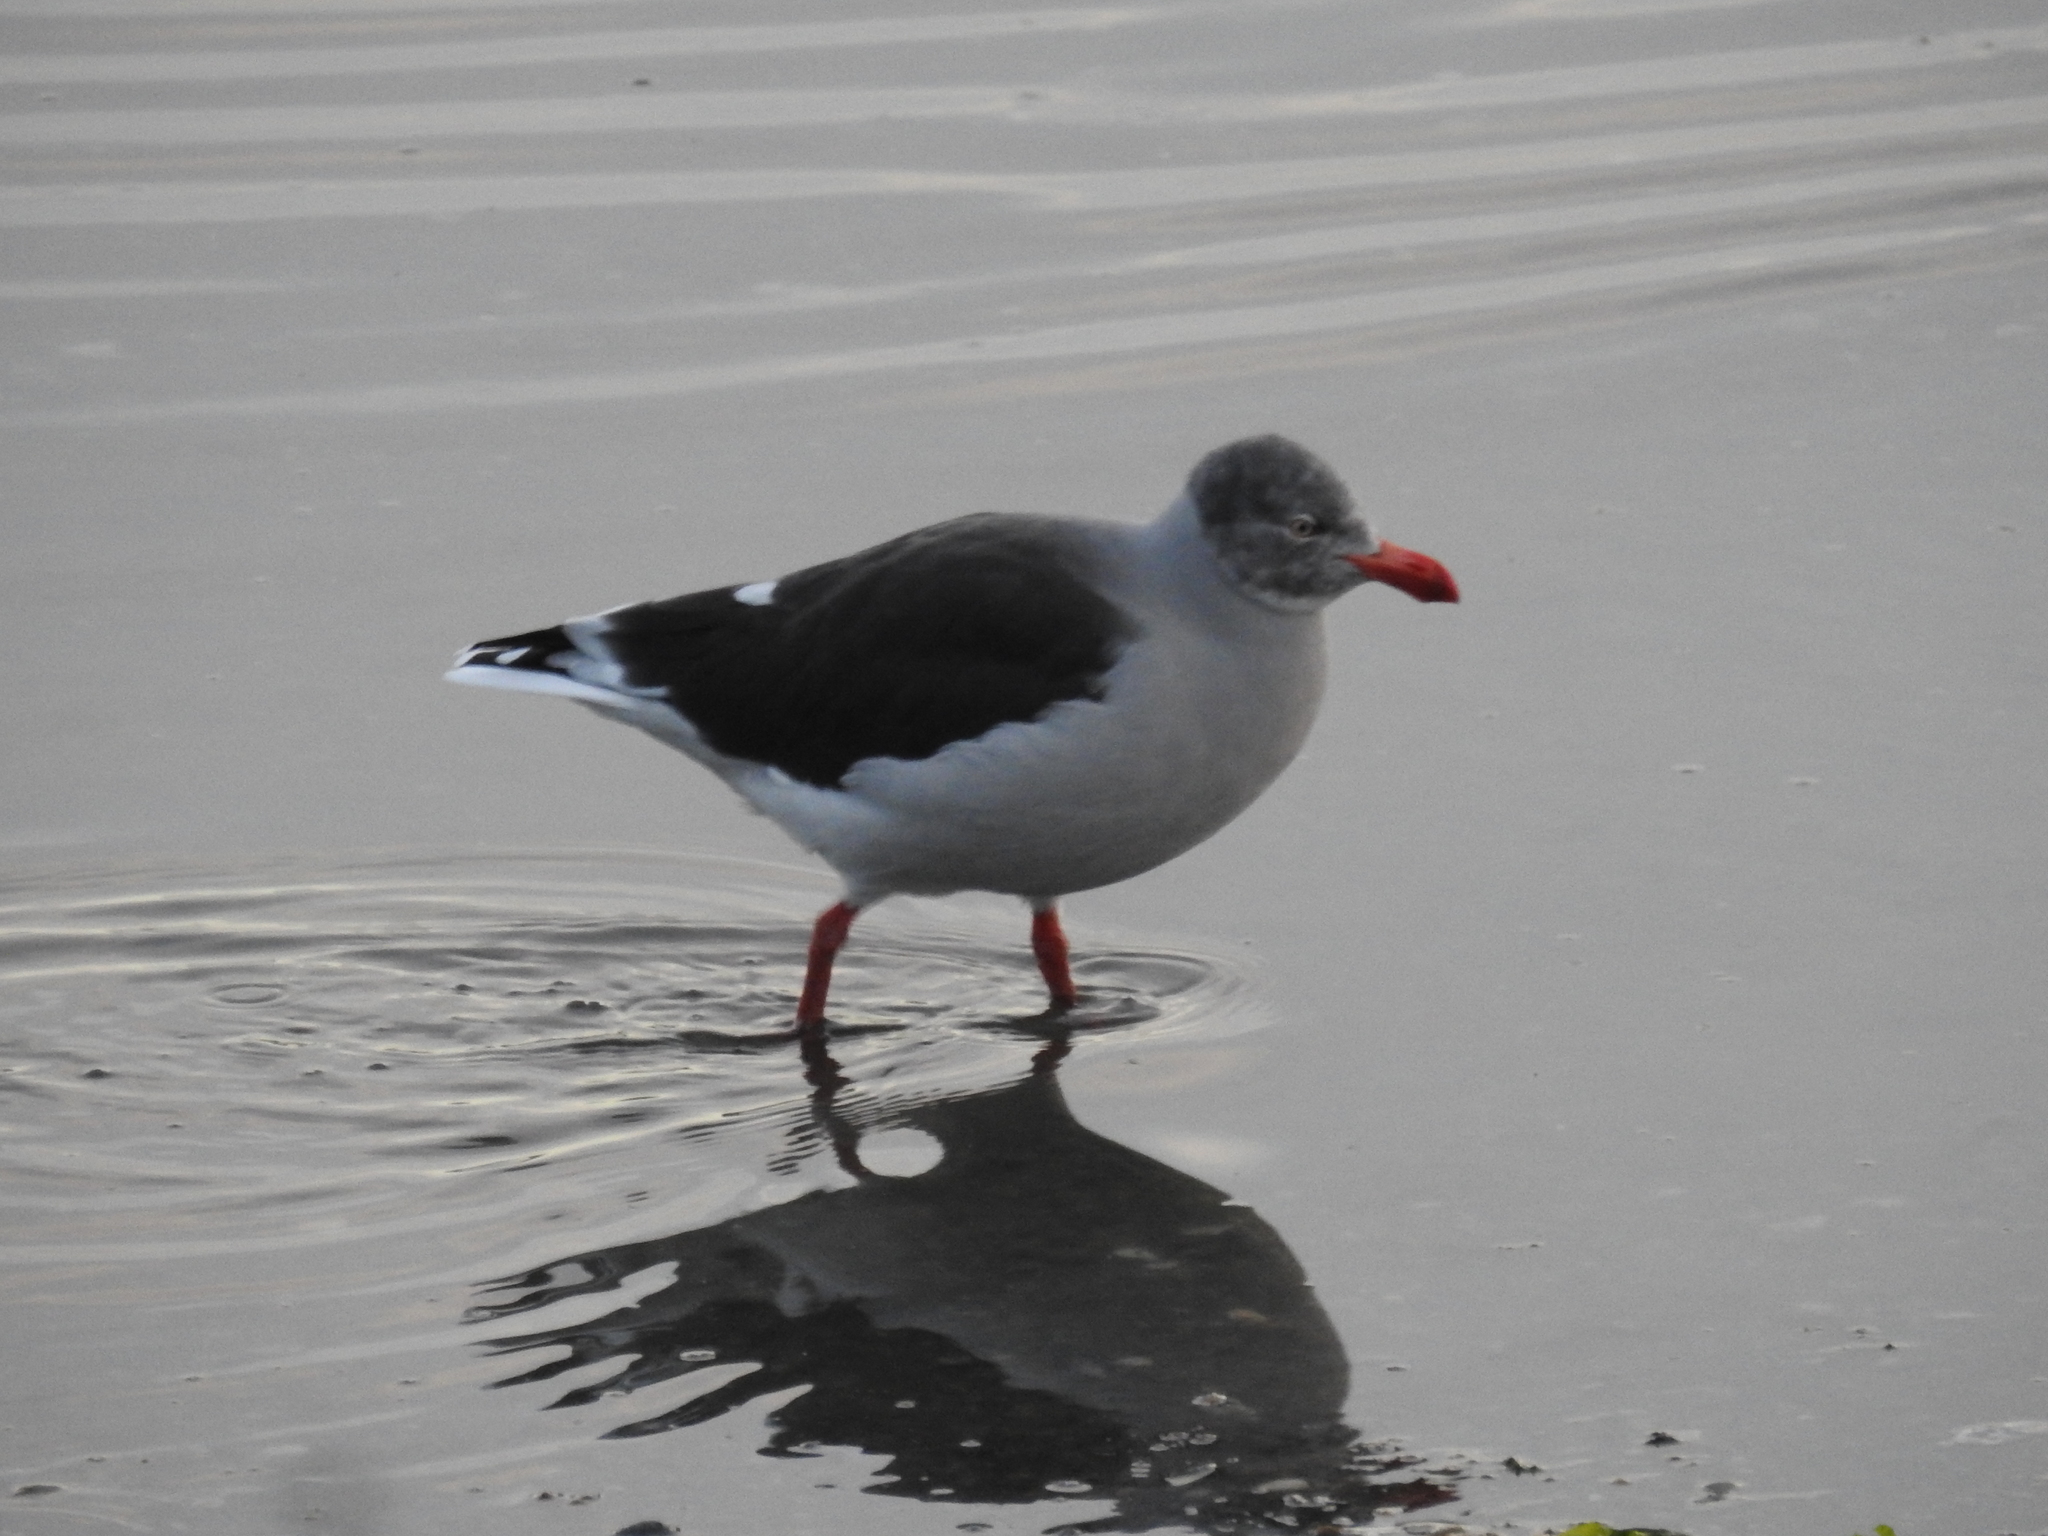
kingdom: Animalia
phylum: Chordata
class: Aves
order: Charadriiformes
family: Laridae
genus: Leucophaeus
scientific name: Leucophaeus scoresbii
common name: Dolphin gull
